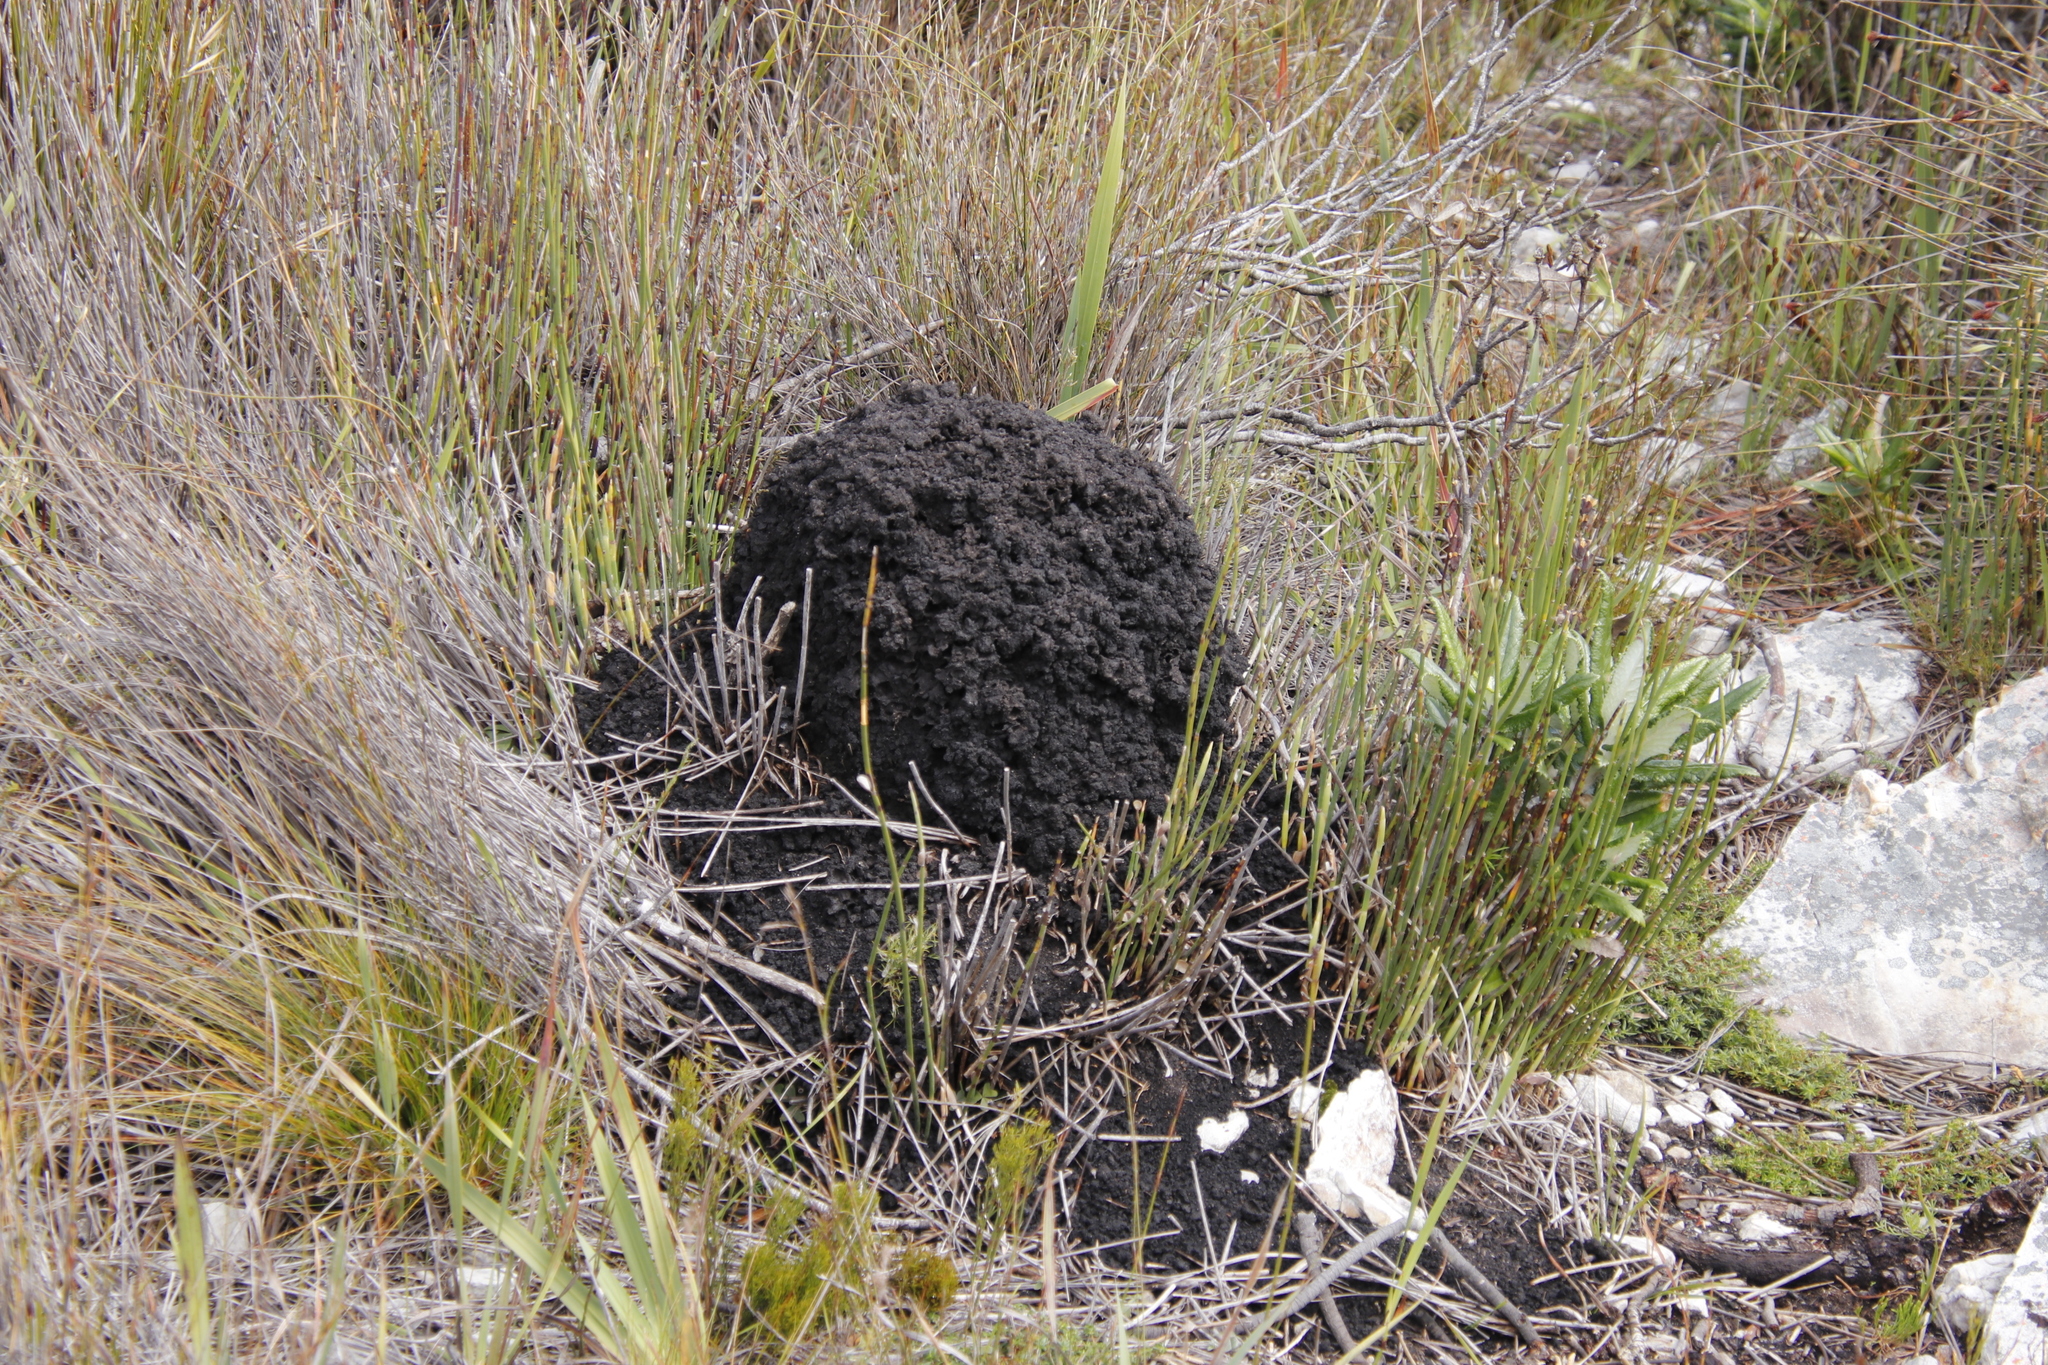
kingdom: Animalia
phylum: Arthropoda
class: Insecta
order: Blattodea
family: Termitidae
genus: Amitermes
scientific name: Amitermes hastatus
